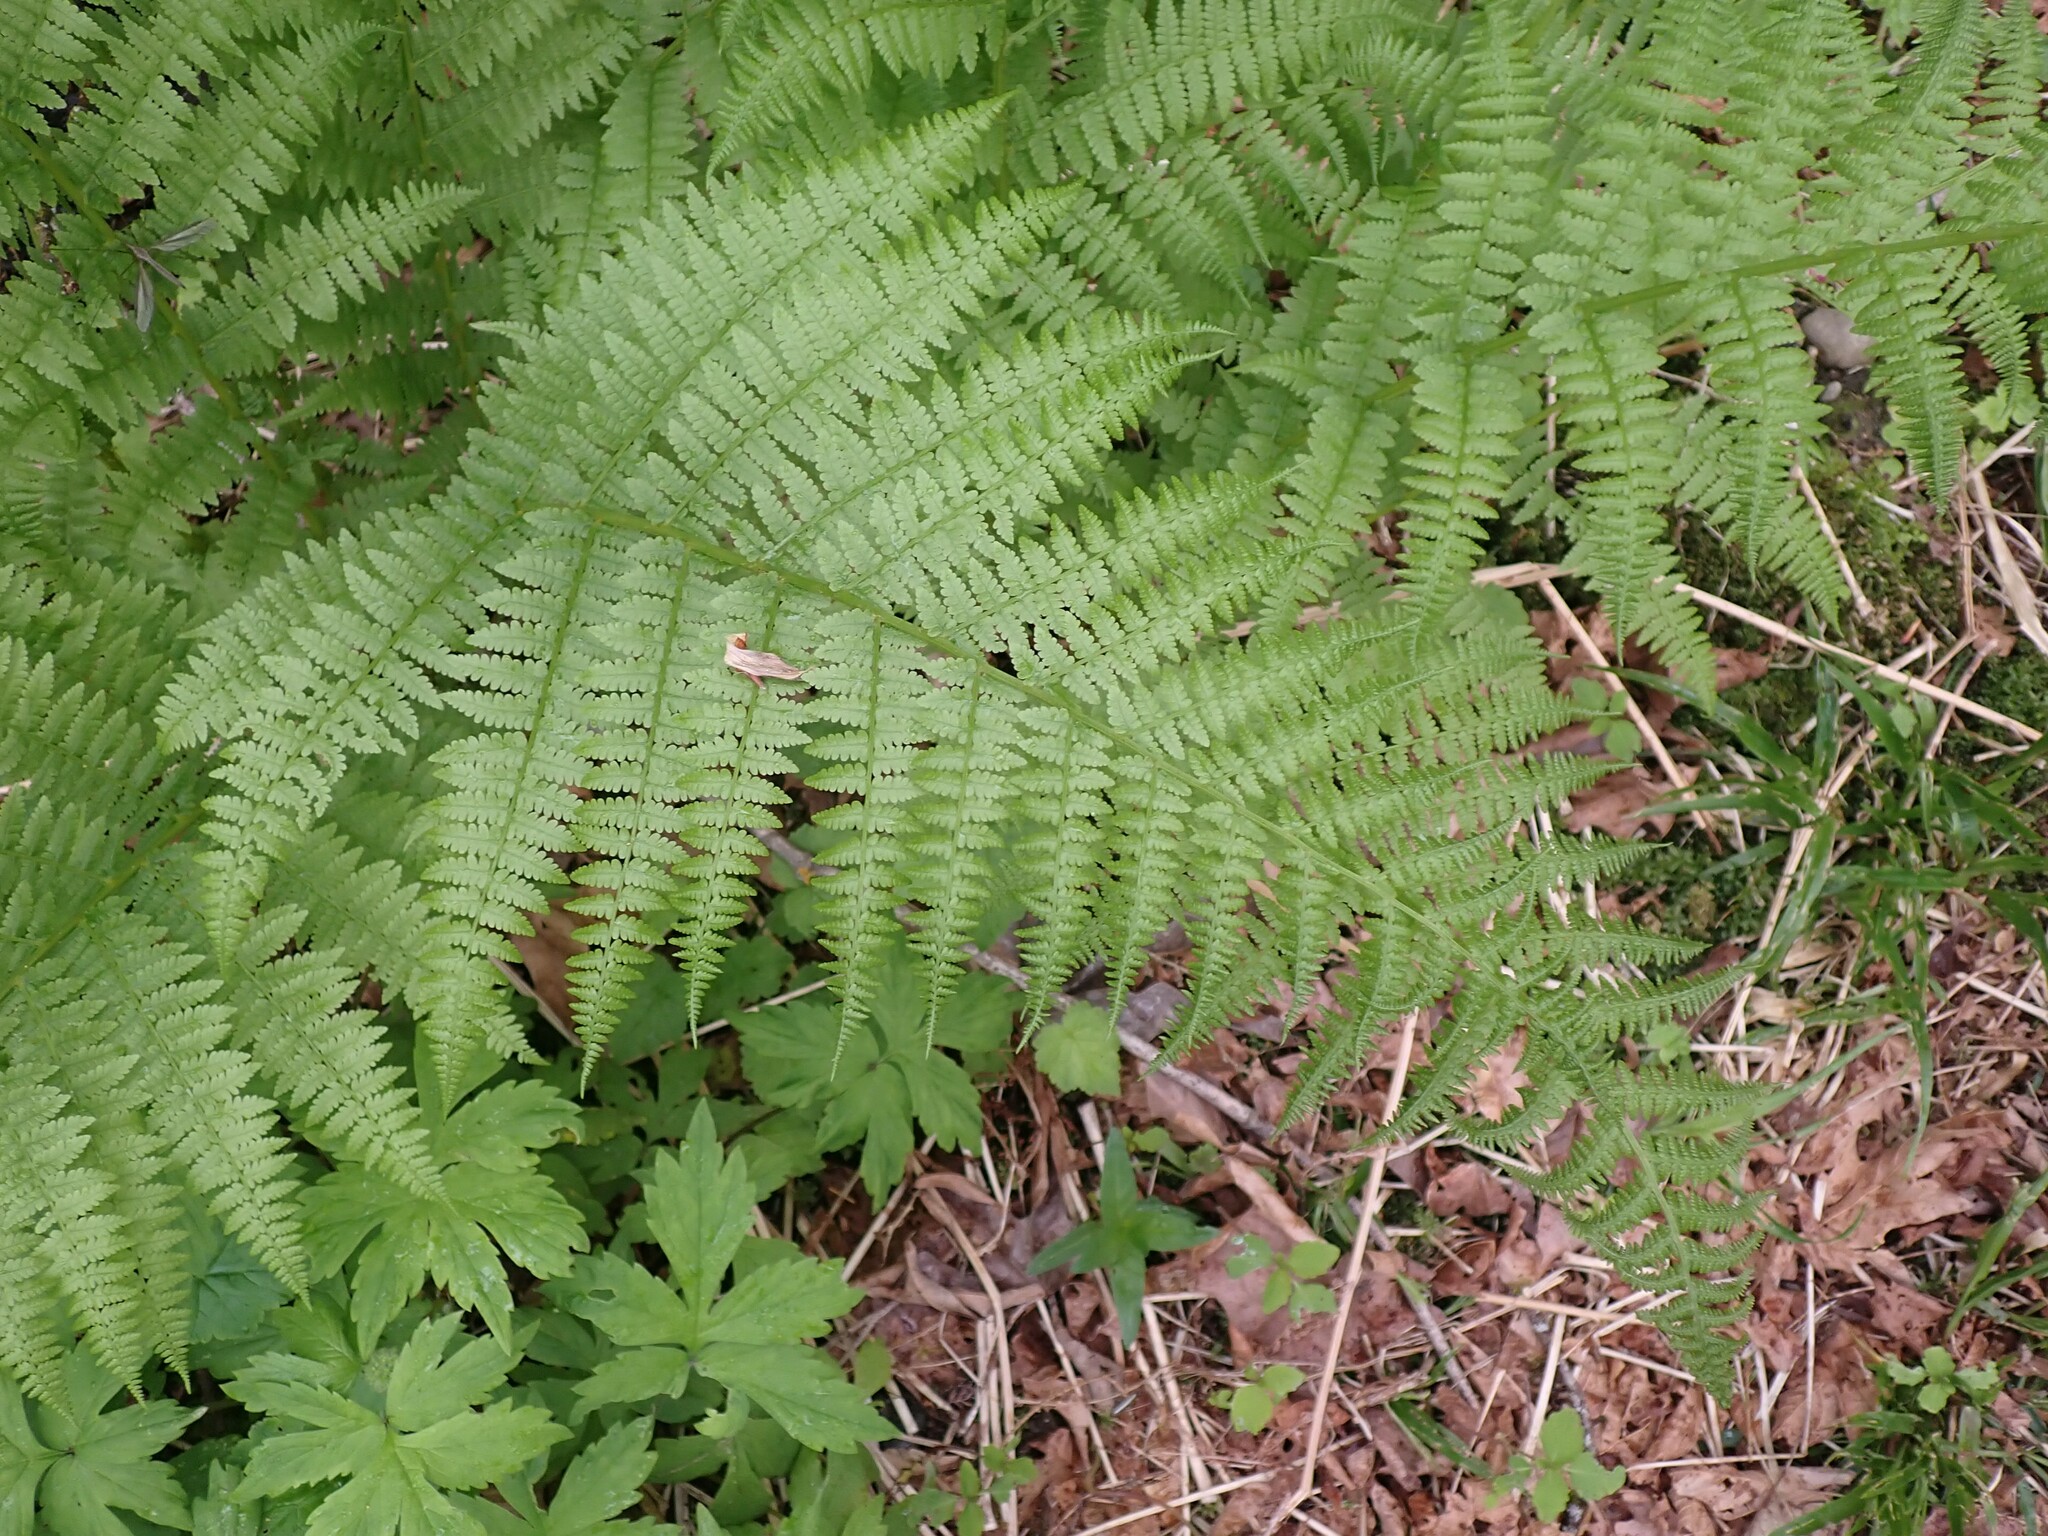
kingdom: Plantae
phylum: Tracheophyta
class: Polypodiopsida
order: Polypodiales
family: Athyriaceae
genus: Athyrium
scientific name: Athyrium cyclosorum
